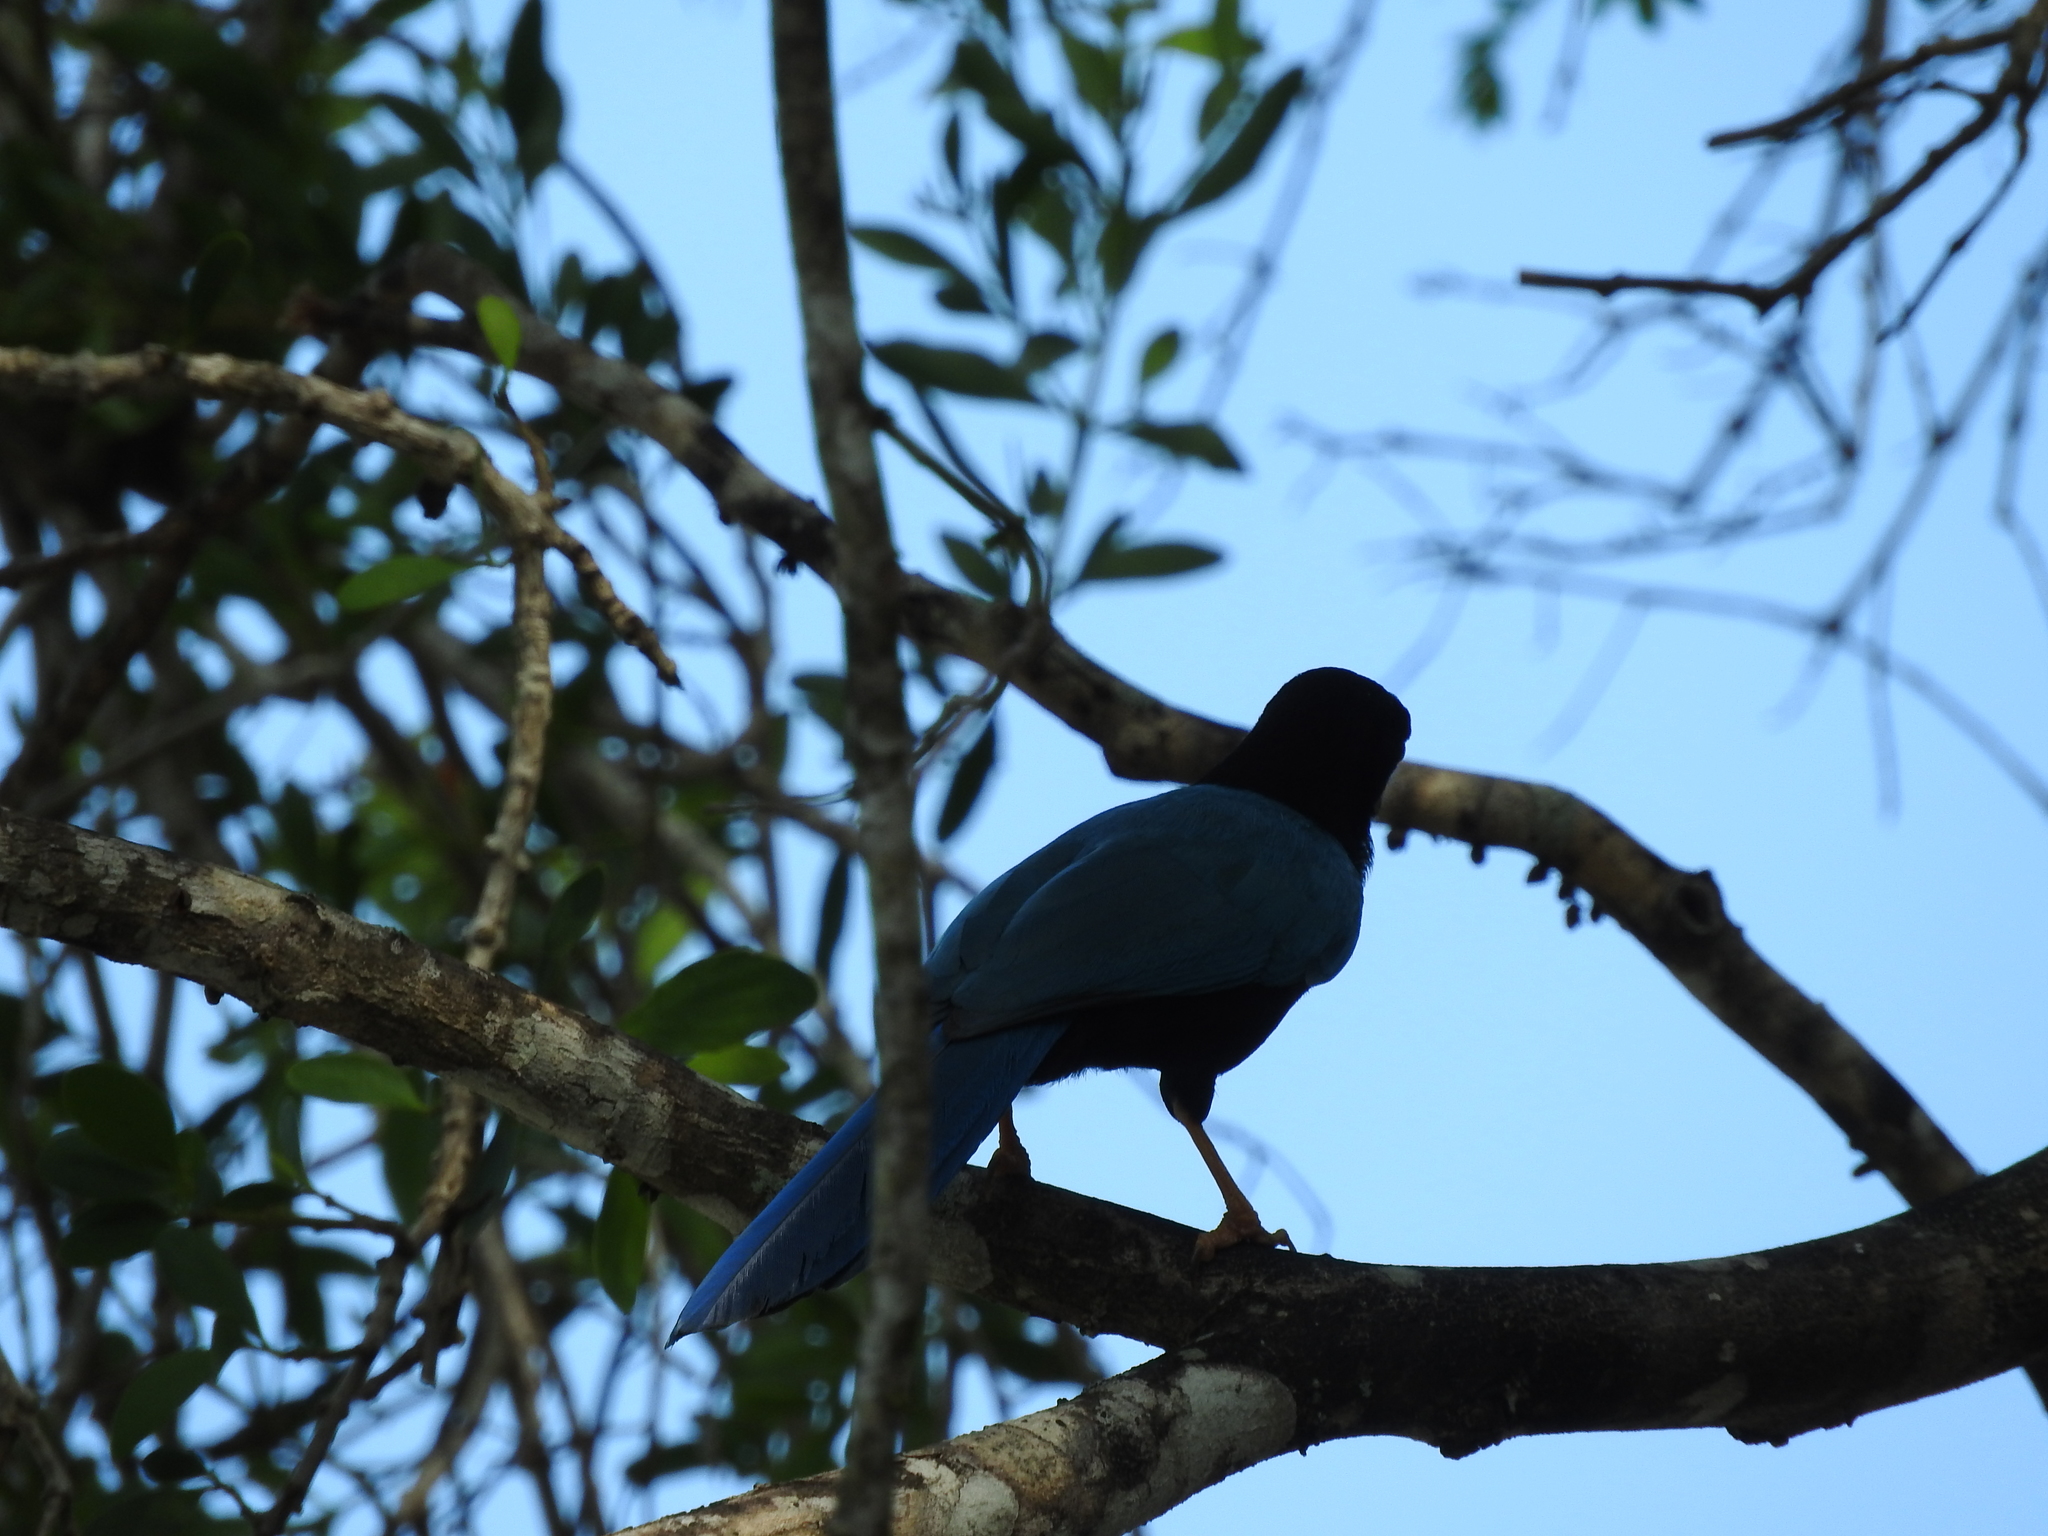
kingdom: Animalia
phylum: Chordata
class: Aves
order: Passeriformes
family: Corvidae
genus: Cyanocorax
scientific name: Cyanocorax yucatanicus
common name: Yucatan jay
